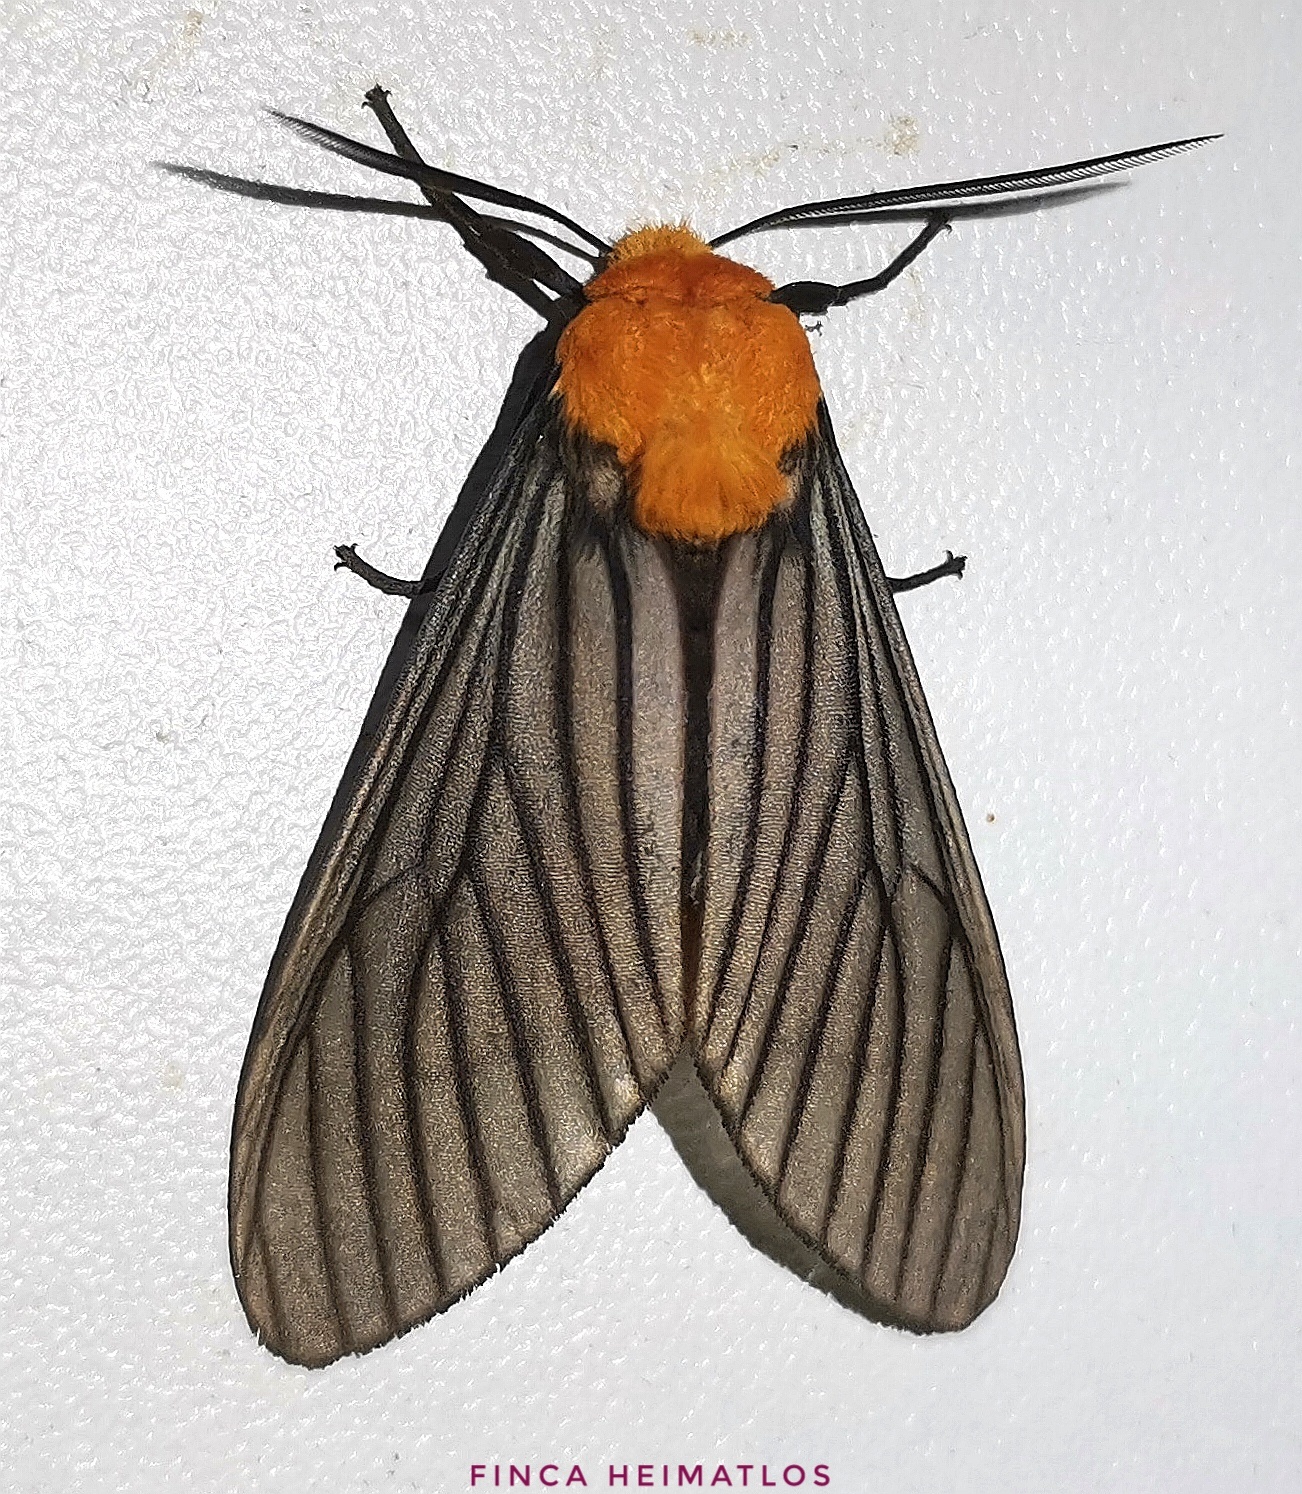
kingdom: Animalia
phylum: Arthropoda
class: Insecta
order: Lepidoptera
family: Erebidae
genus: Pseudischnocampa
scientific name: Pseudischnocampa humosa
